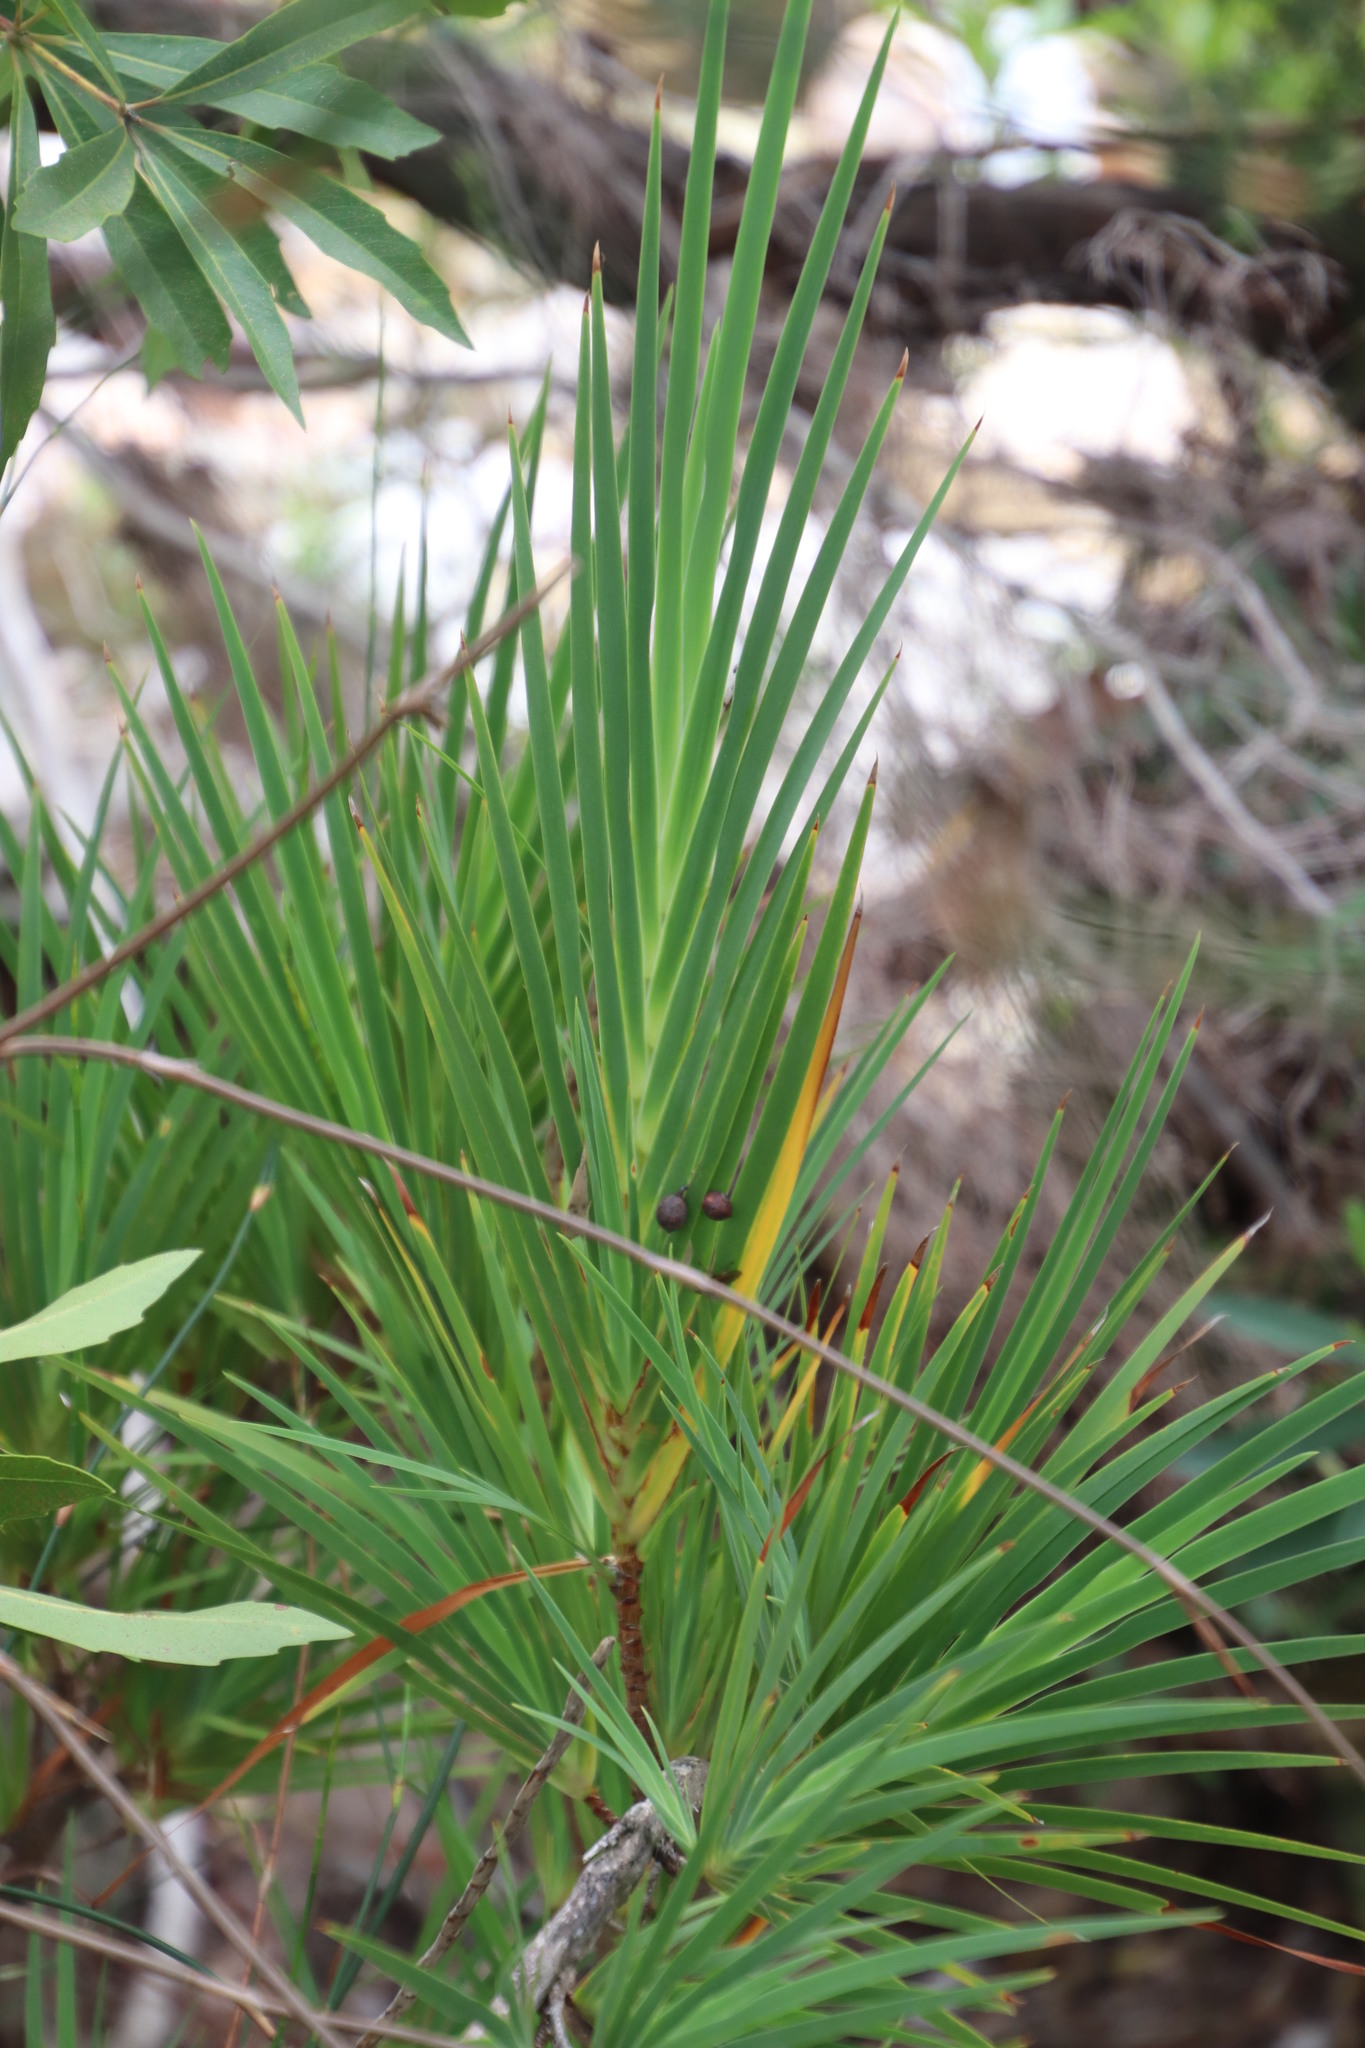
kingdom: Plantae
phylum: Tracheophyta
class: Liliopsida
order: Asparagales
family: Iridaceae
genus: Nivenia
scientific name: Nivenia corymbosa
